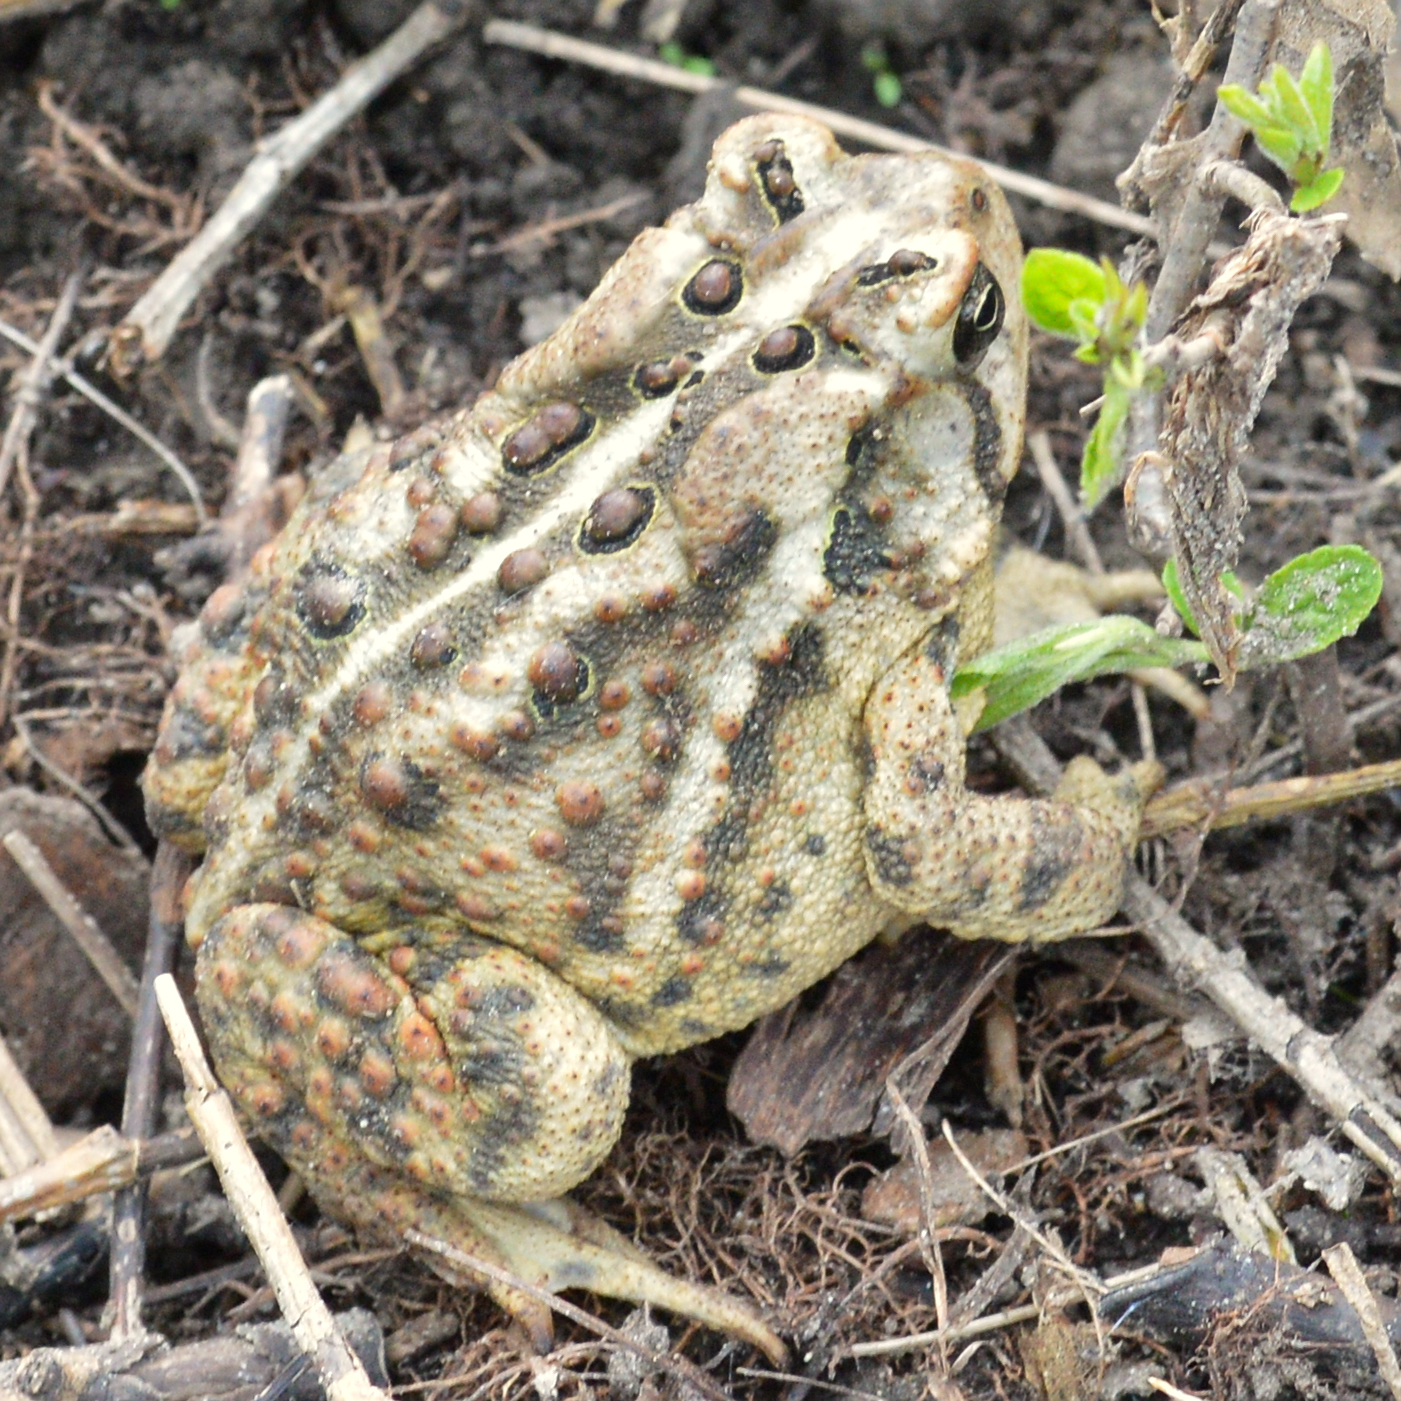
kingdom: Animalia
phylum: Chordata
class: Amphibia
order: Anura
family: Bufonidae
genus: Anaxyrus
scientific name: Anaxyrus americanus
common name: American toad
